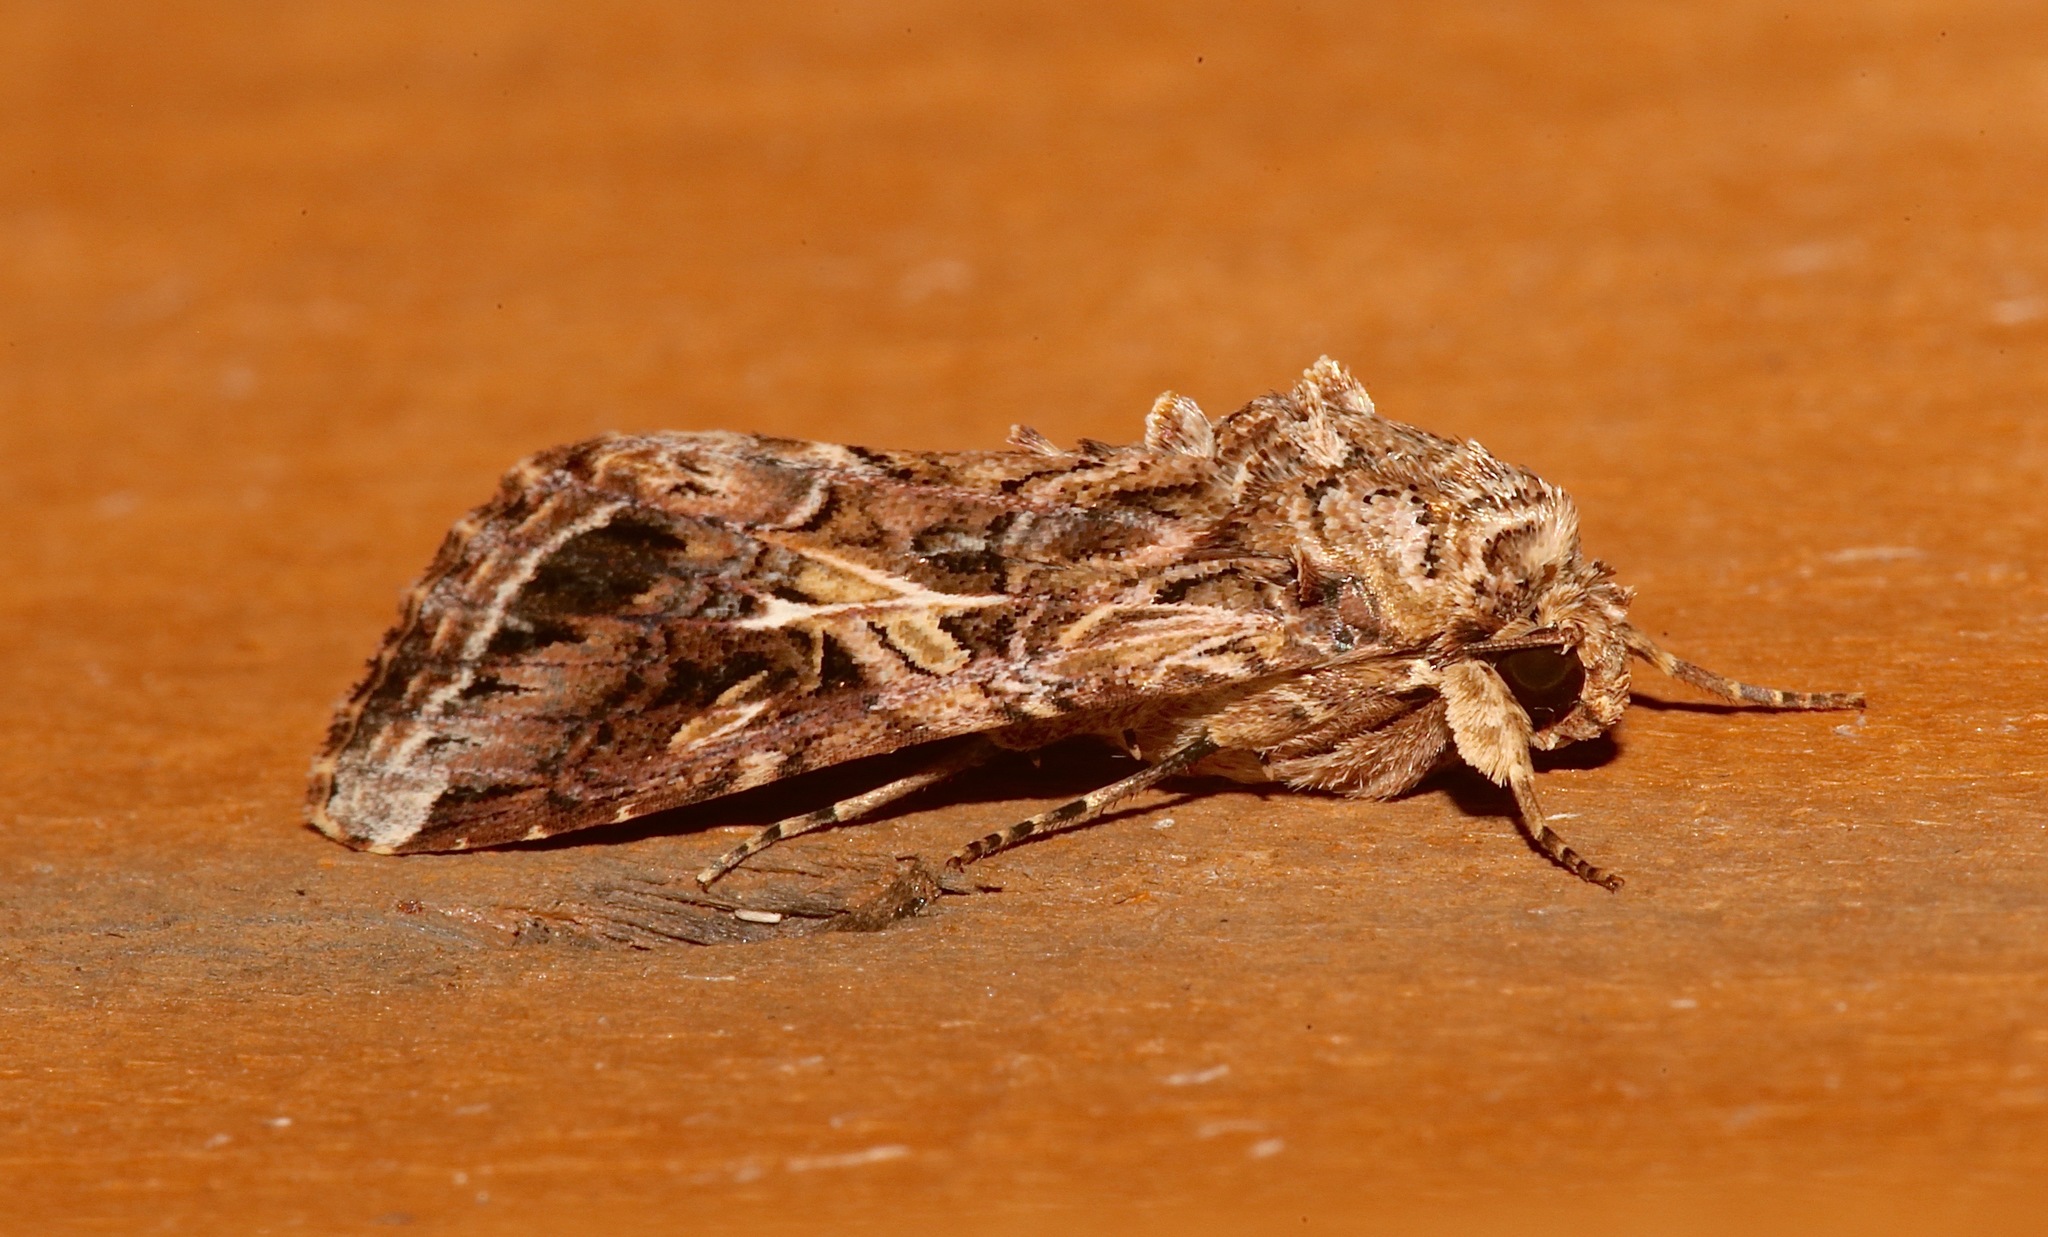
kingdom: Animalia
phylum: Arthropoda
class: Insecta
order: Lepidoptera
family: Noctuidae
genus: Spodoptera
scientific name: Spodoptera ornithogalli
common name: Yellow-striped armyworm
